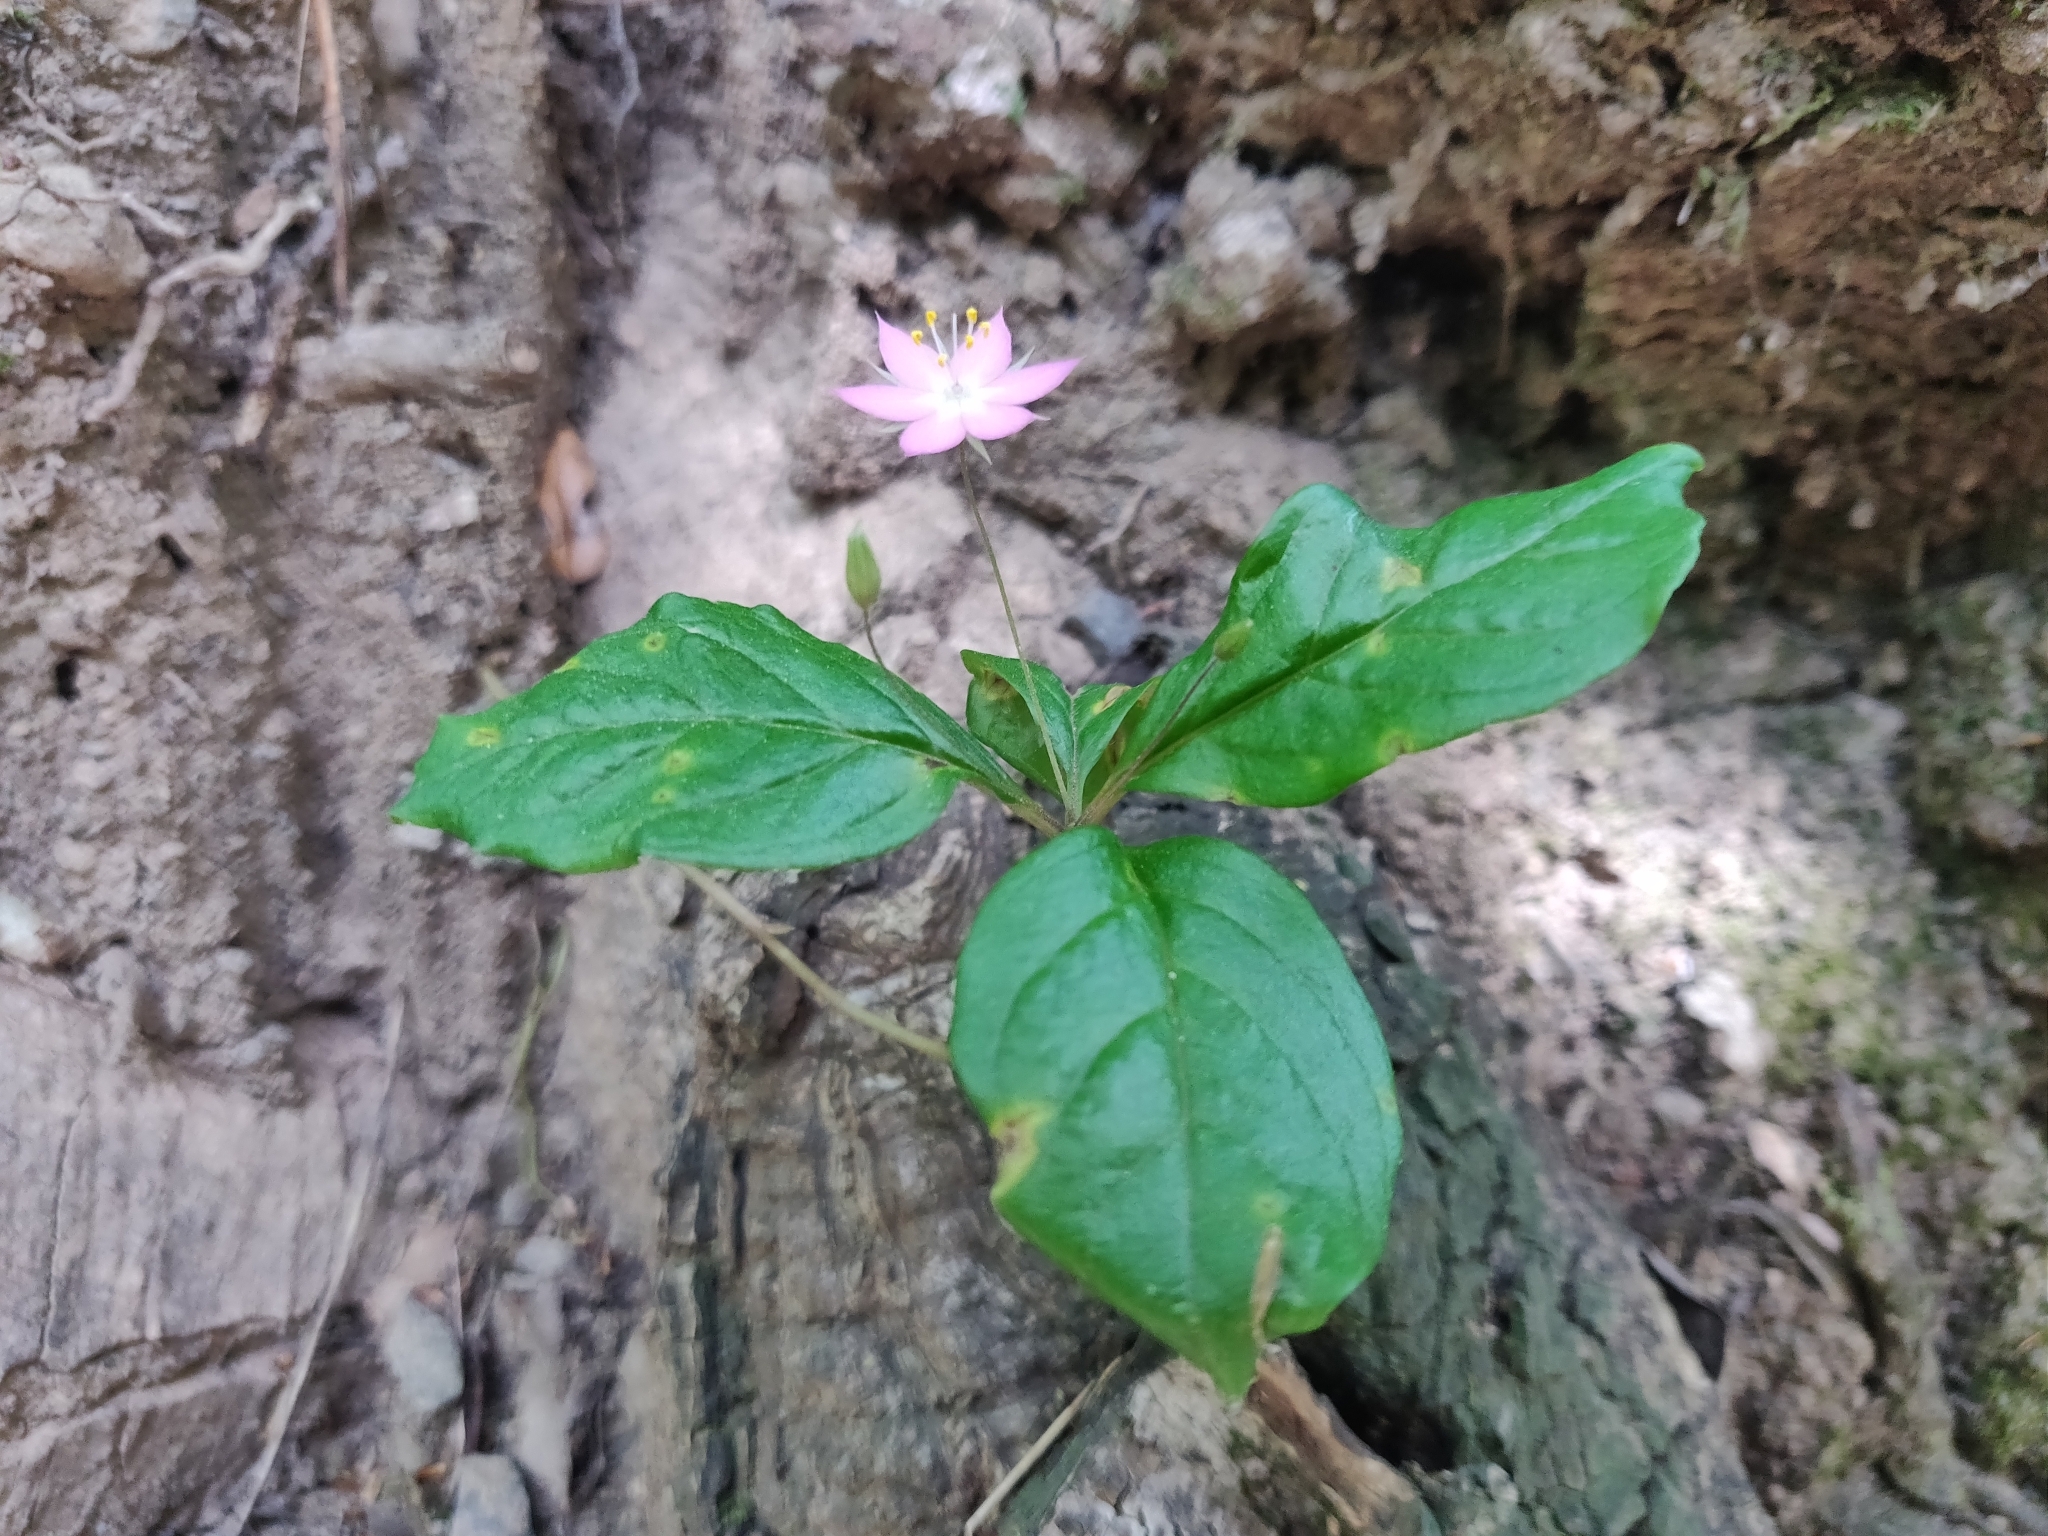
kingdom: Plantae
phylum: Tracheophyta
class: Magnoliopsida
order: Ericales
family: Primulaceae
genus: Lysimachia
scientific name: Lysimachia latifolia
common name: Pacific starflower
